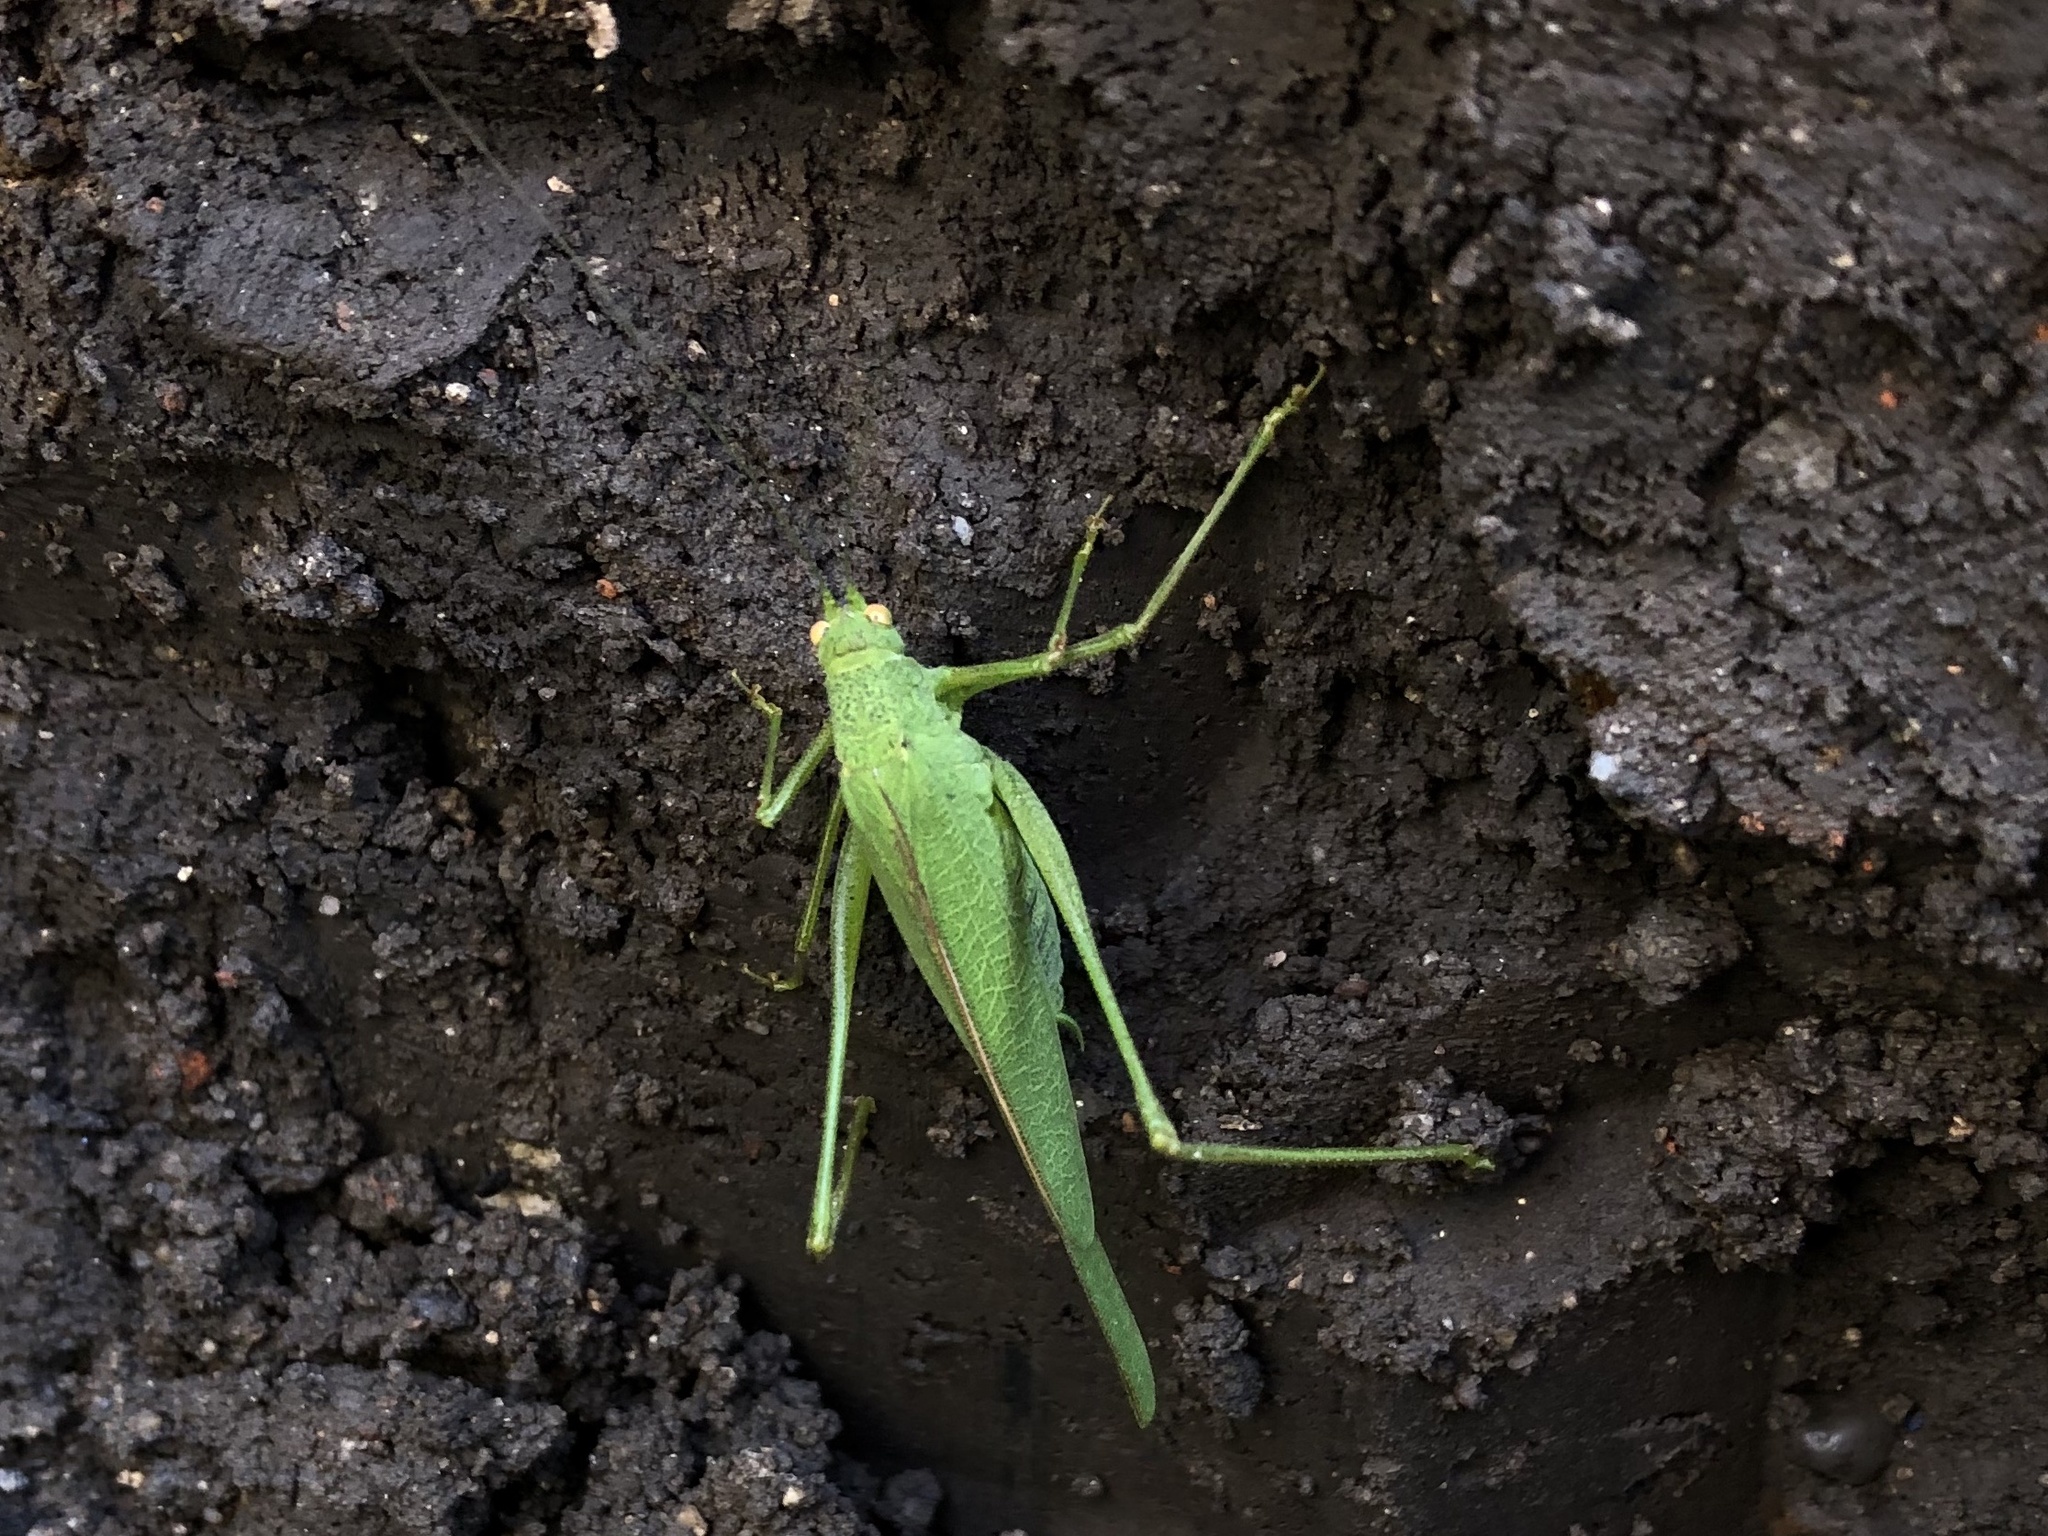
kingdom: Animalia
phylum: Arthropoda
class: Insecta
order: Orthoptera
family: Tettigoniidae
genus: Phaneroptera
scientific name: Phaneroptera nana
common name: Southern sickle bush-cricket
